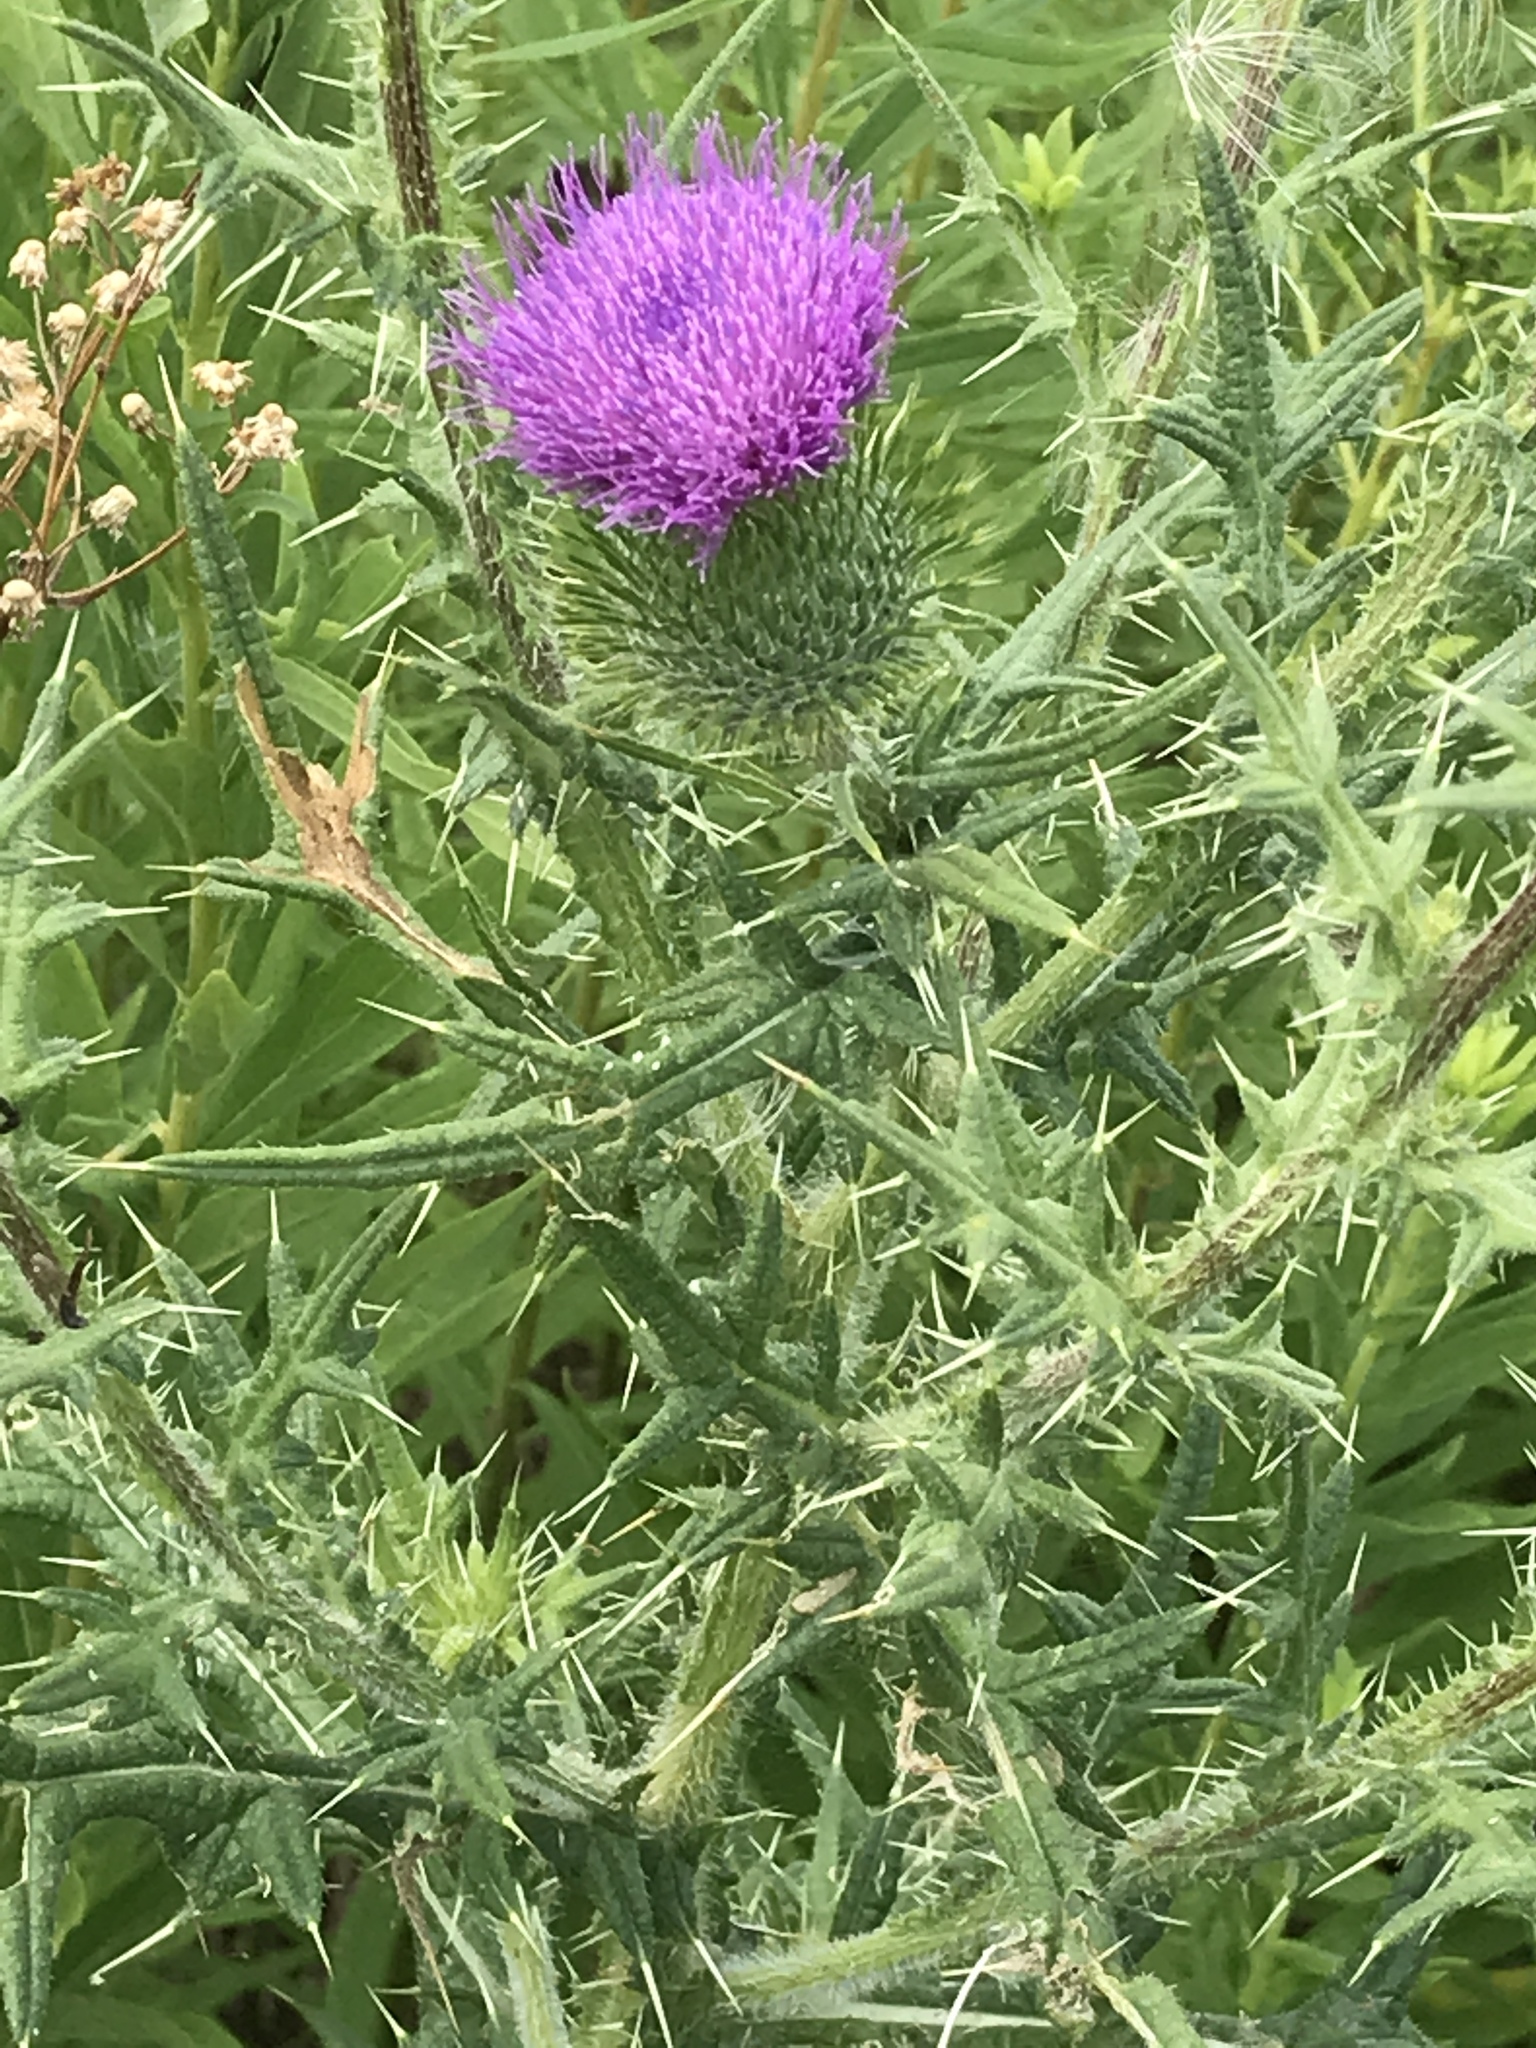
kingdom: Plantae
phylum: Tracheophyta
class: Magnoliopsida
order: Asterales
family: Asteraceae
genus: Cirsium
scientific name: Cirsium vulgare
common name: Bull thistle
